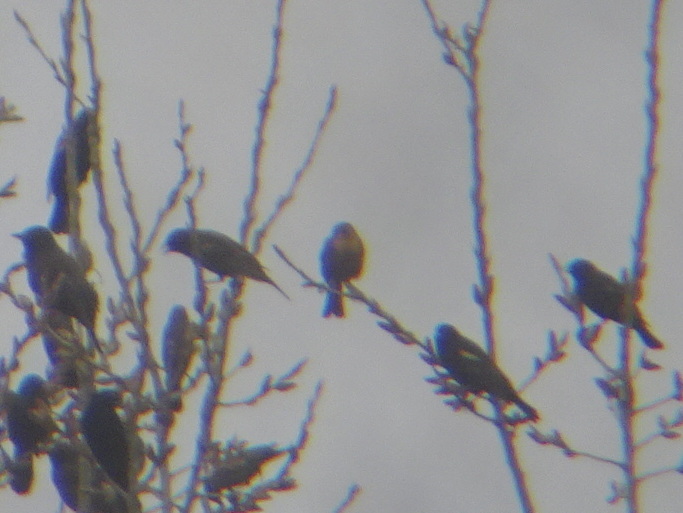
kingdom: Animalia
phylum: Chordata
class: Aves
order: Passeriformes
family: Icteridae
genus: Xanthocephalus
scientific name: Xanthocephalus xanthocephalus
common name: Yellow-headed blackbird
